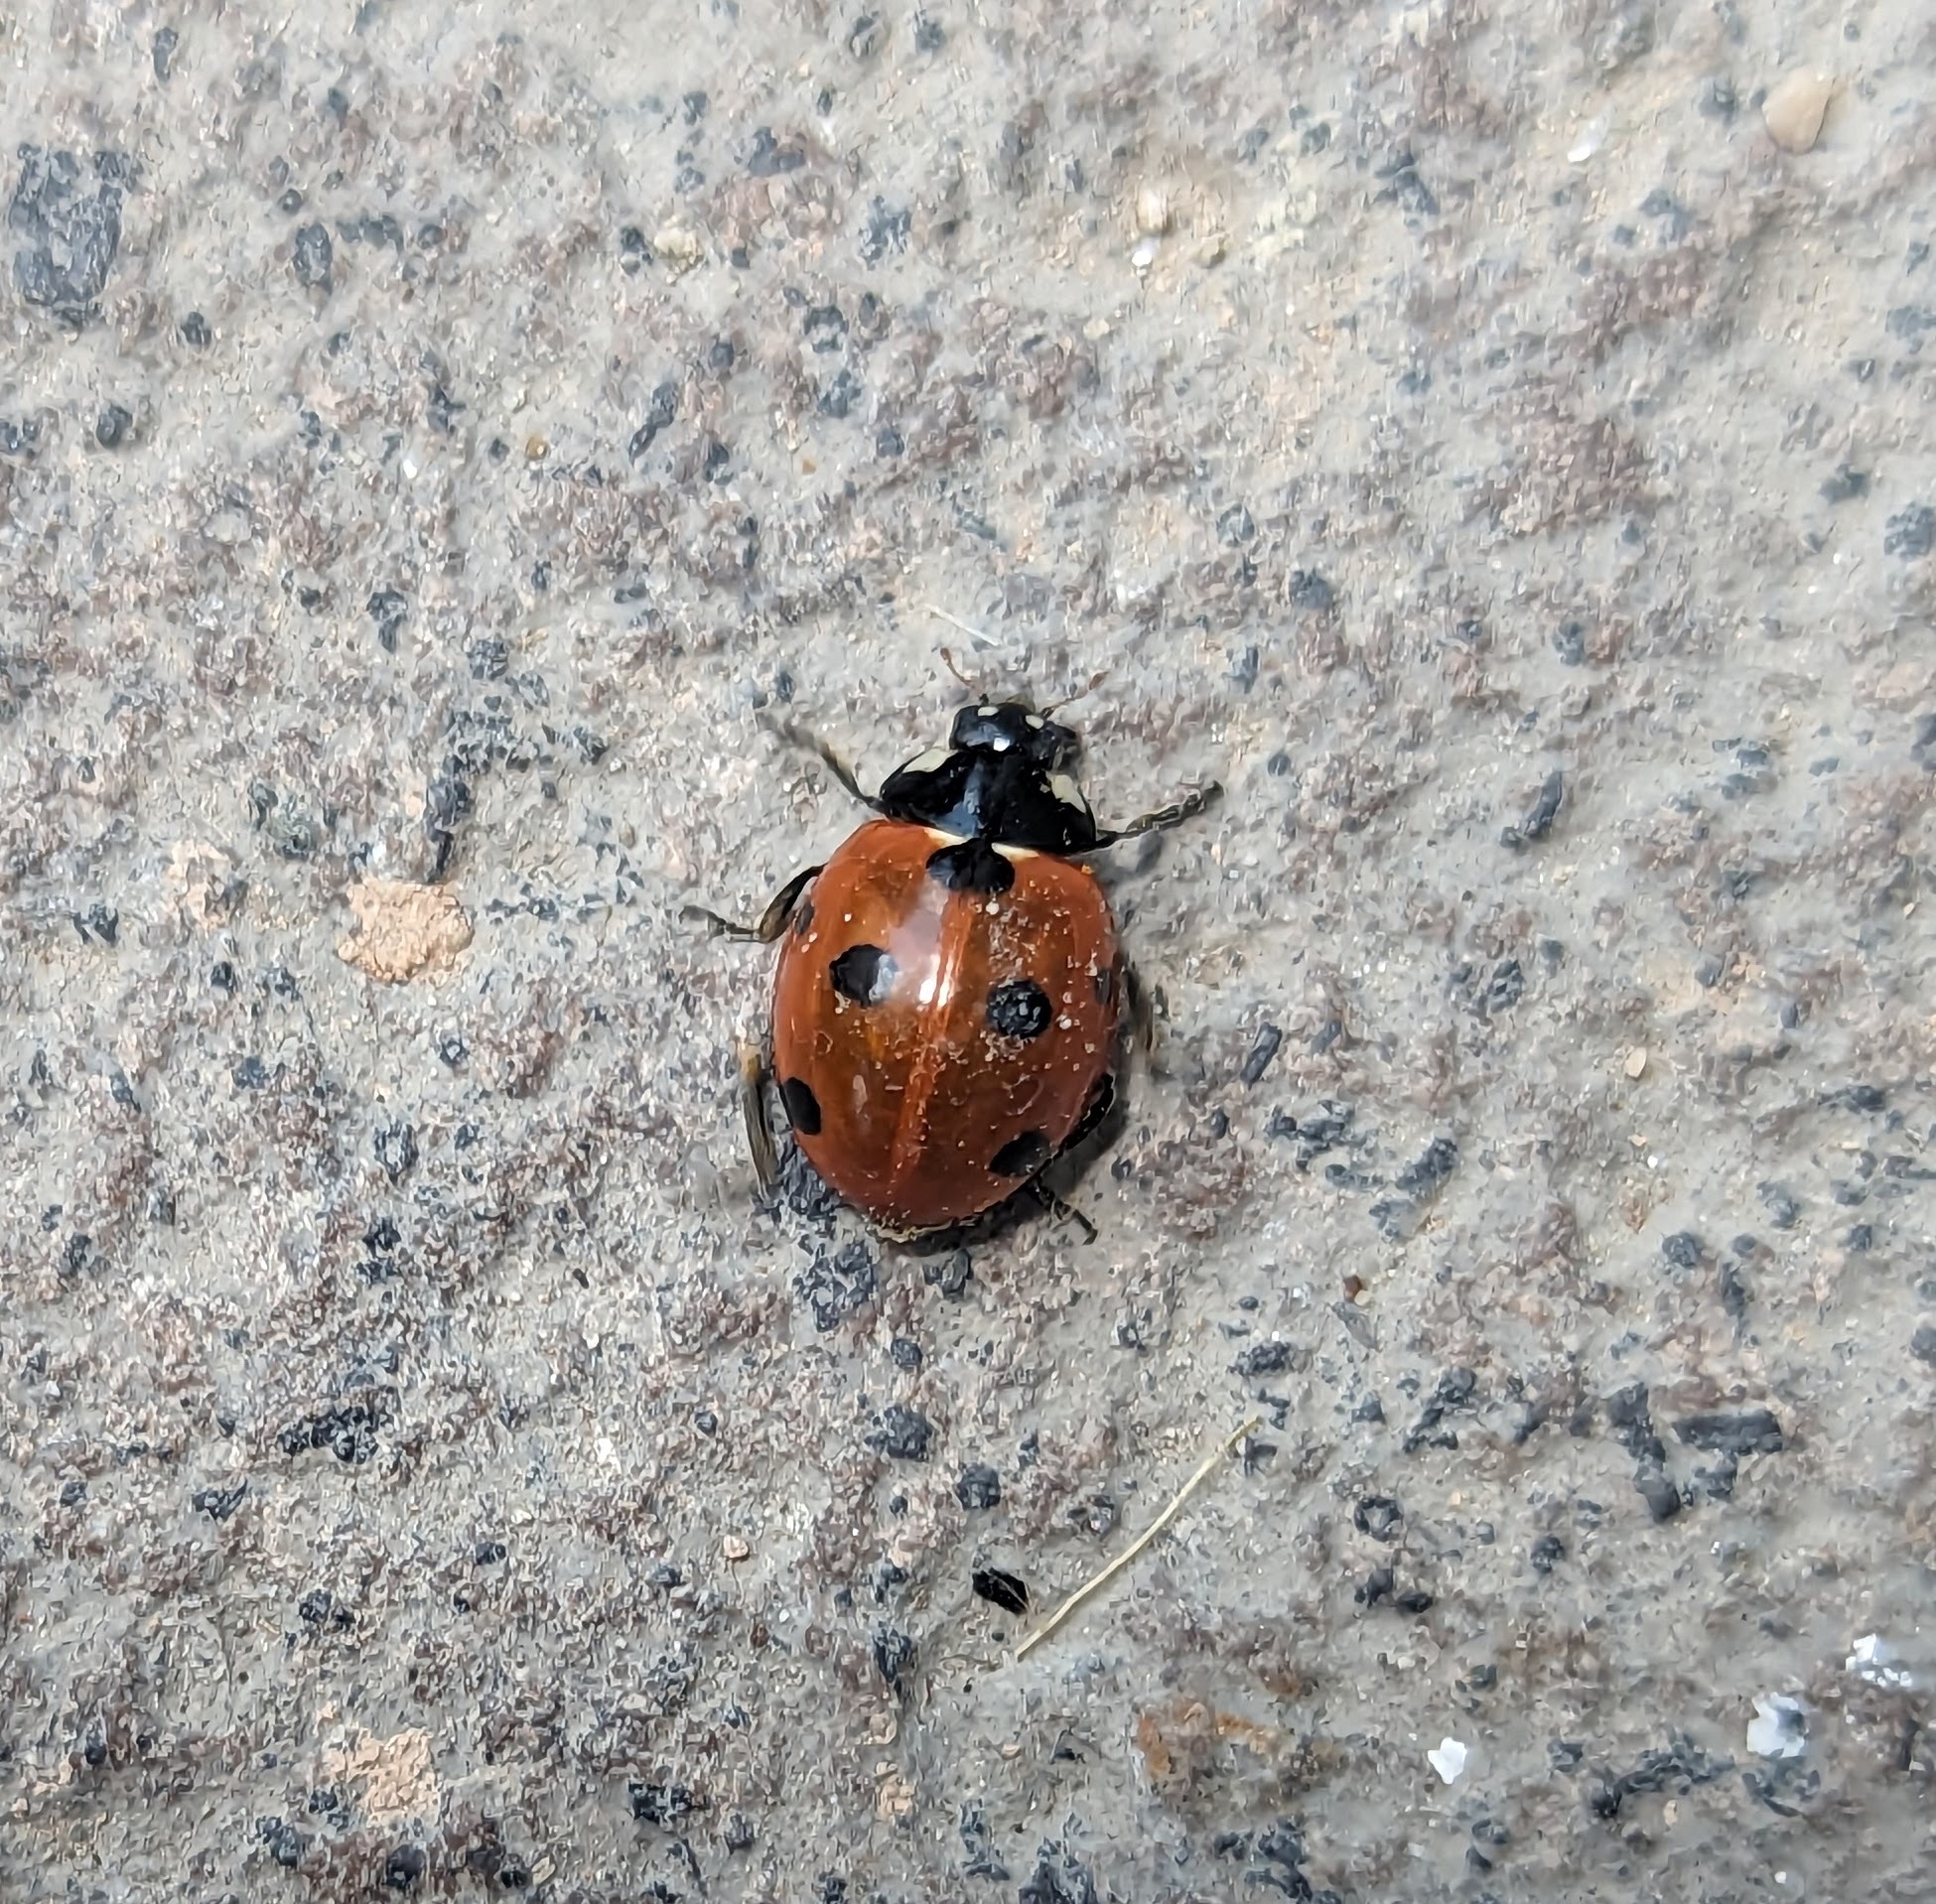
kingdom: Animalia
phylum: Arthropoda
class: Insecta
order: Coleoptera
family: Coccinellidae
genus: Coccinella
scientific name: Coccinella septempunctata
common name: Sevenspotted lady beetle
